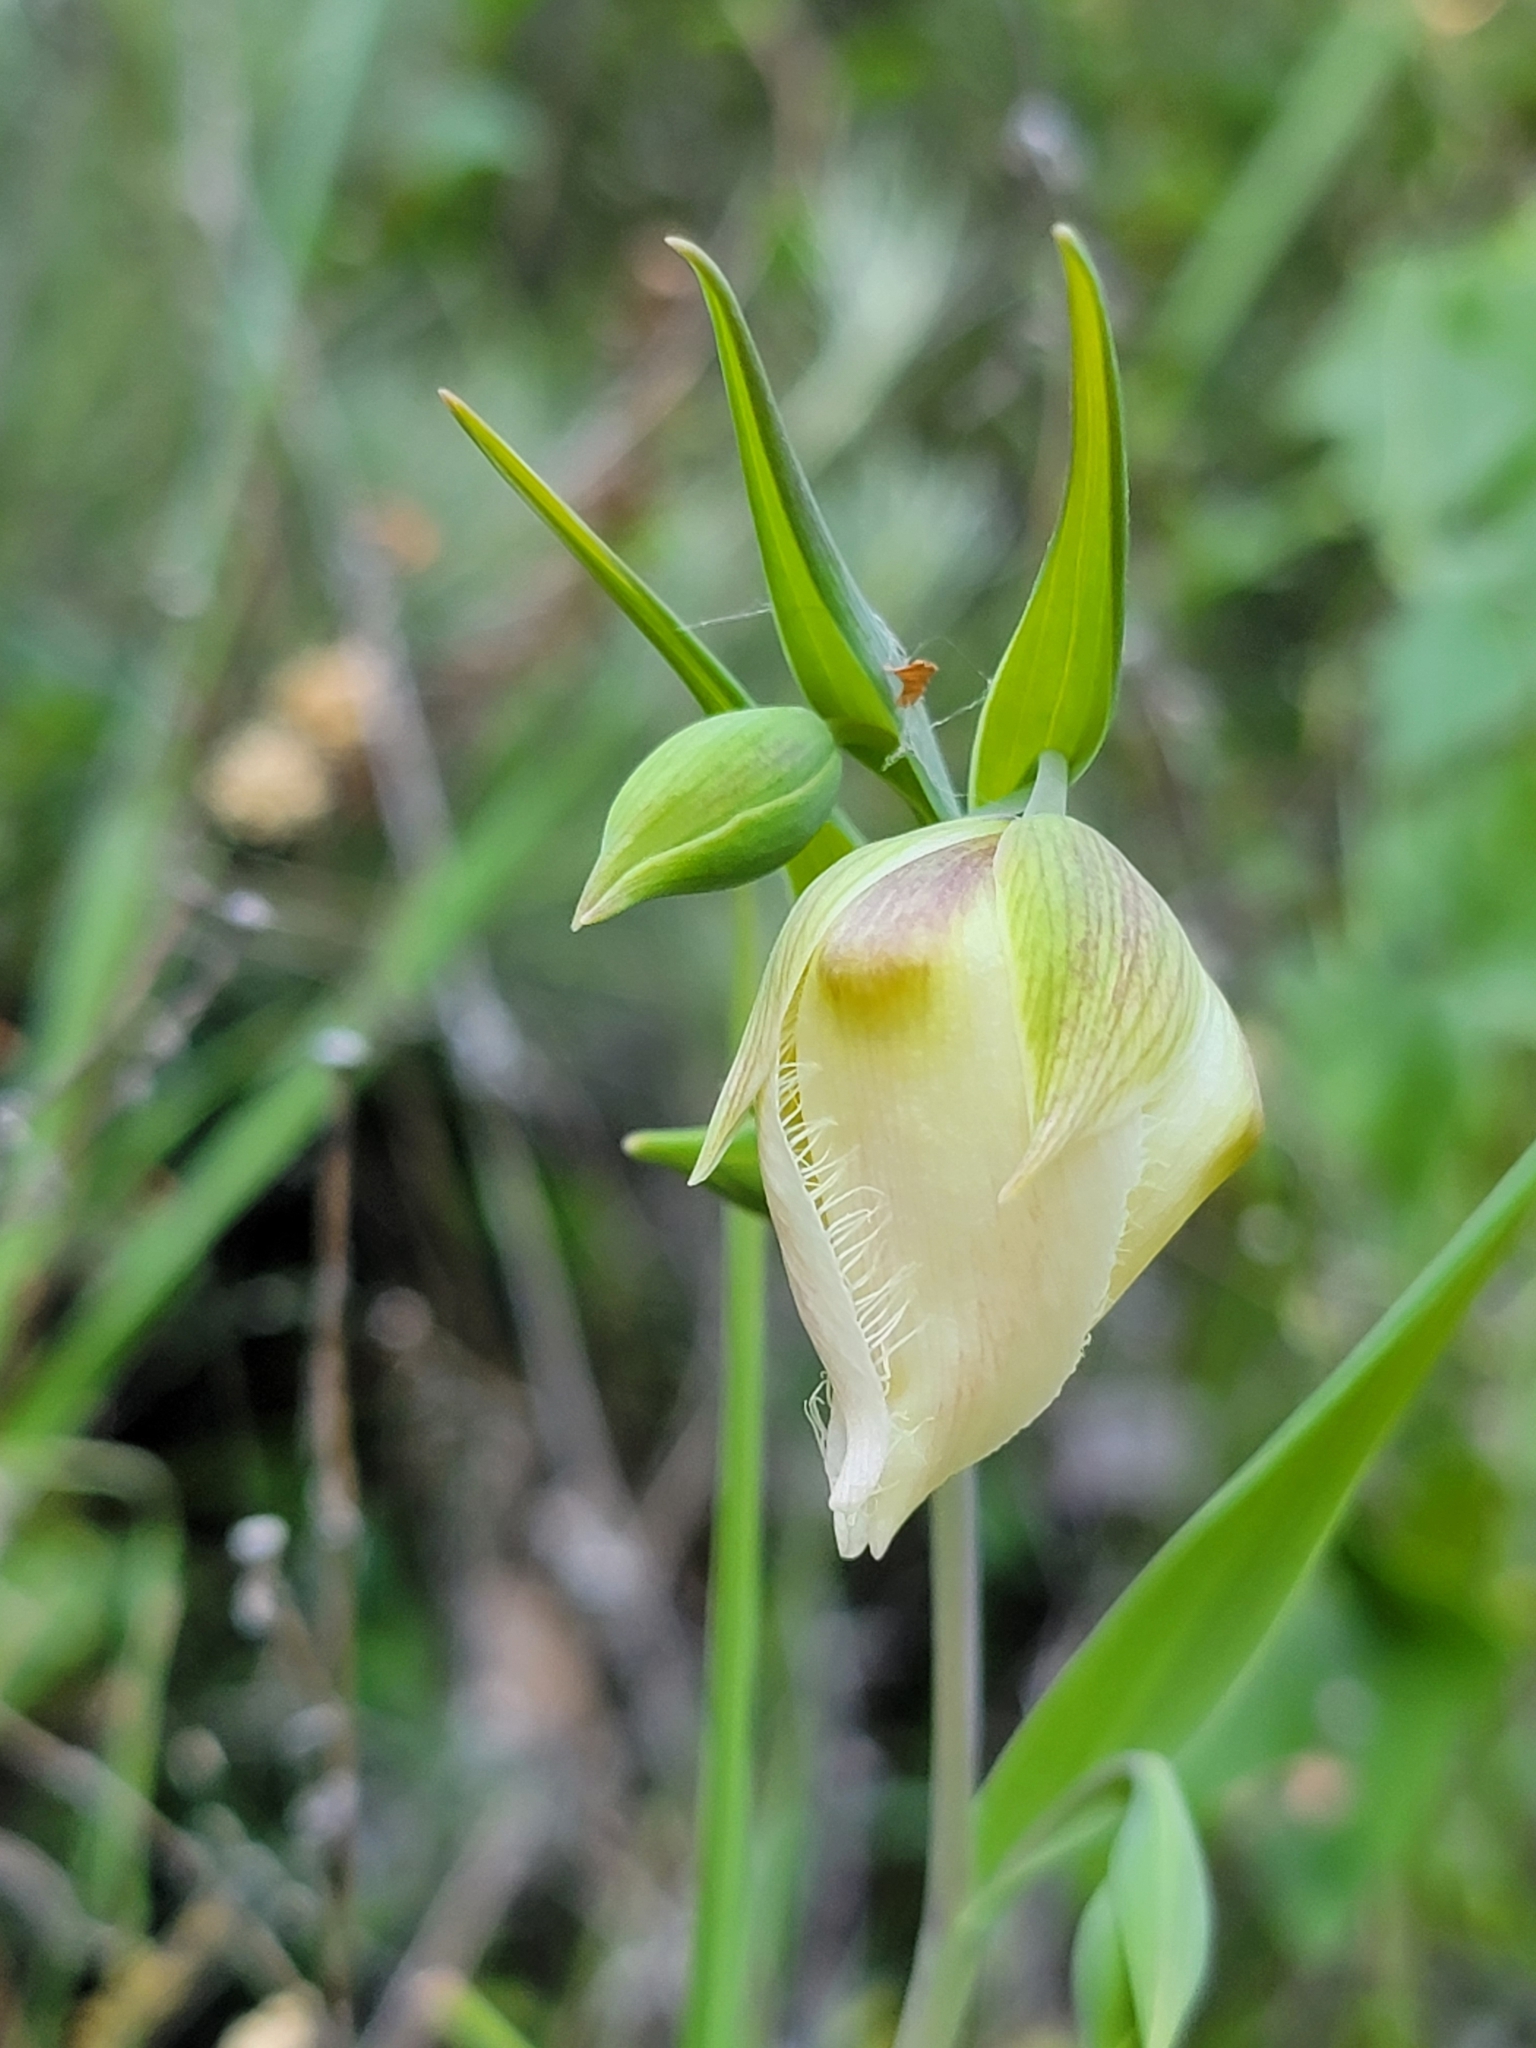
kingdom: Plantae
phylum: Tracheophyta
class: Liliopsida
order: Liliales
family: Liliaceae
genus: Calochortus
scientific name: Calochortus albus
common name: Fairy-lantern
